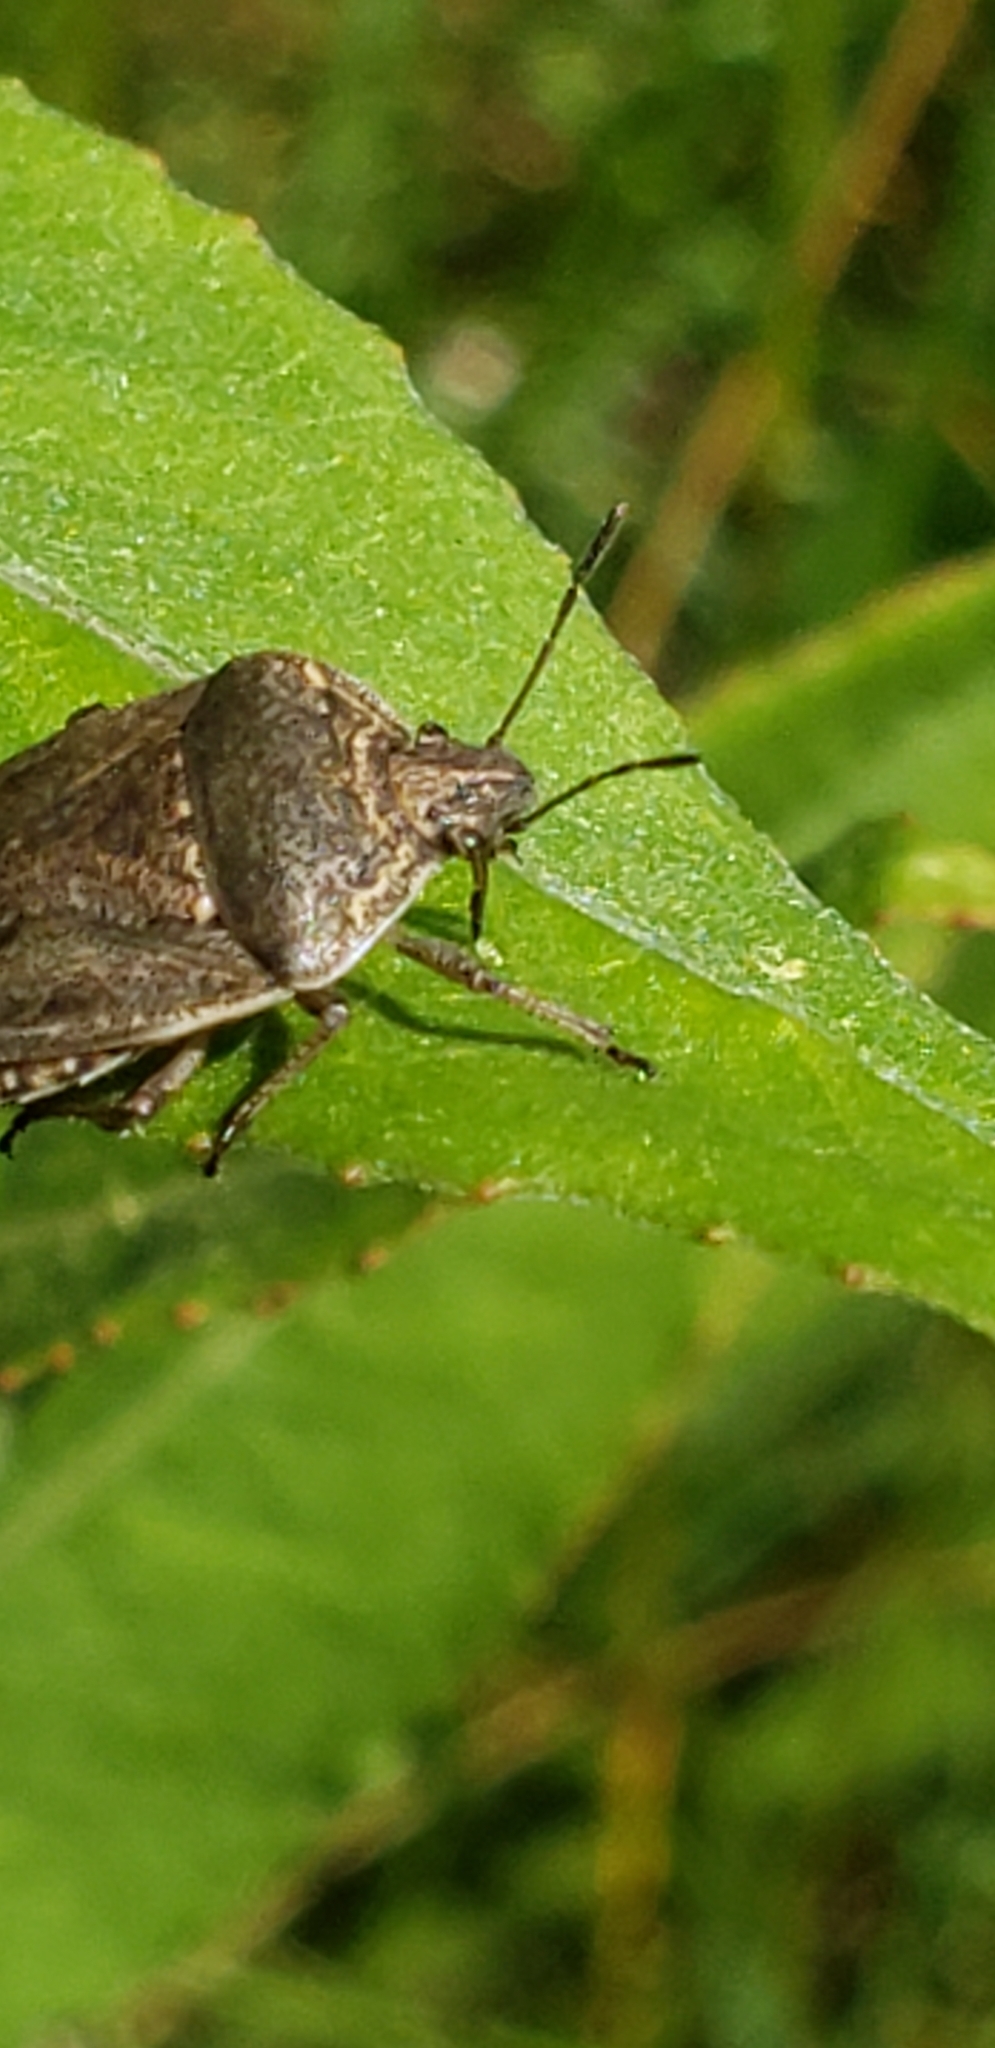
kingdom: Animalia
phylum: Arthropoda
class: Insecta
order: Hemiptera
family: Pentatomidae
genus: Hymenarcys
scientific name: Hymenarcys nervosa
